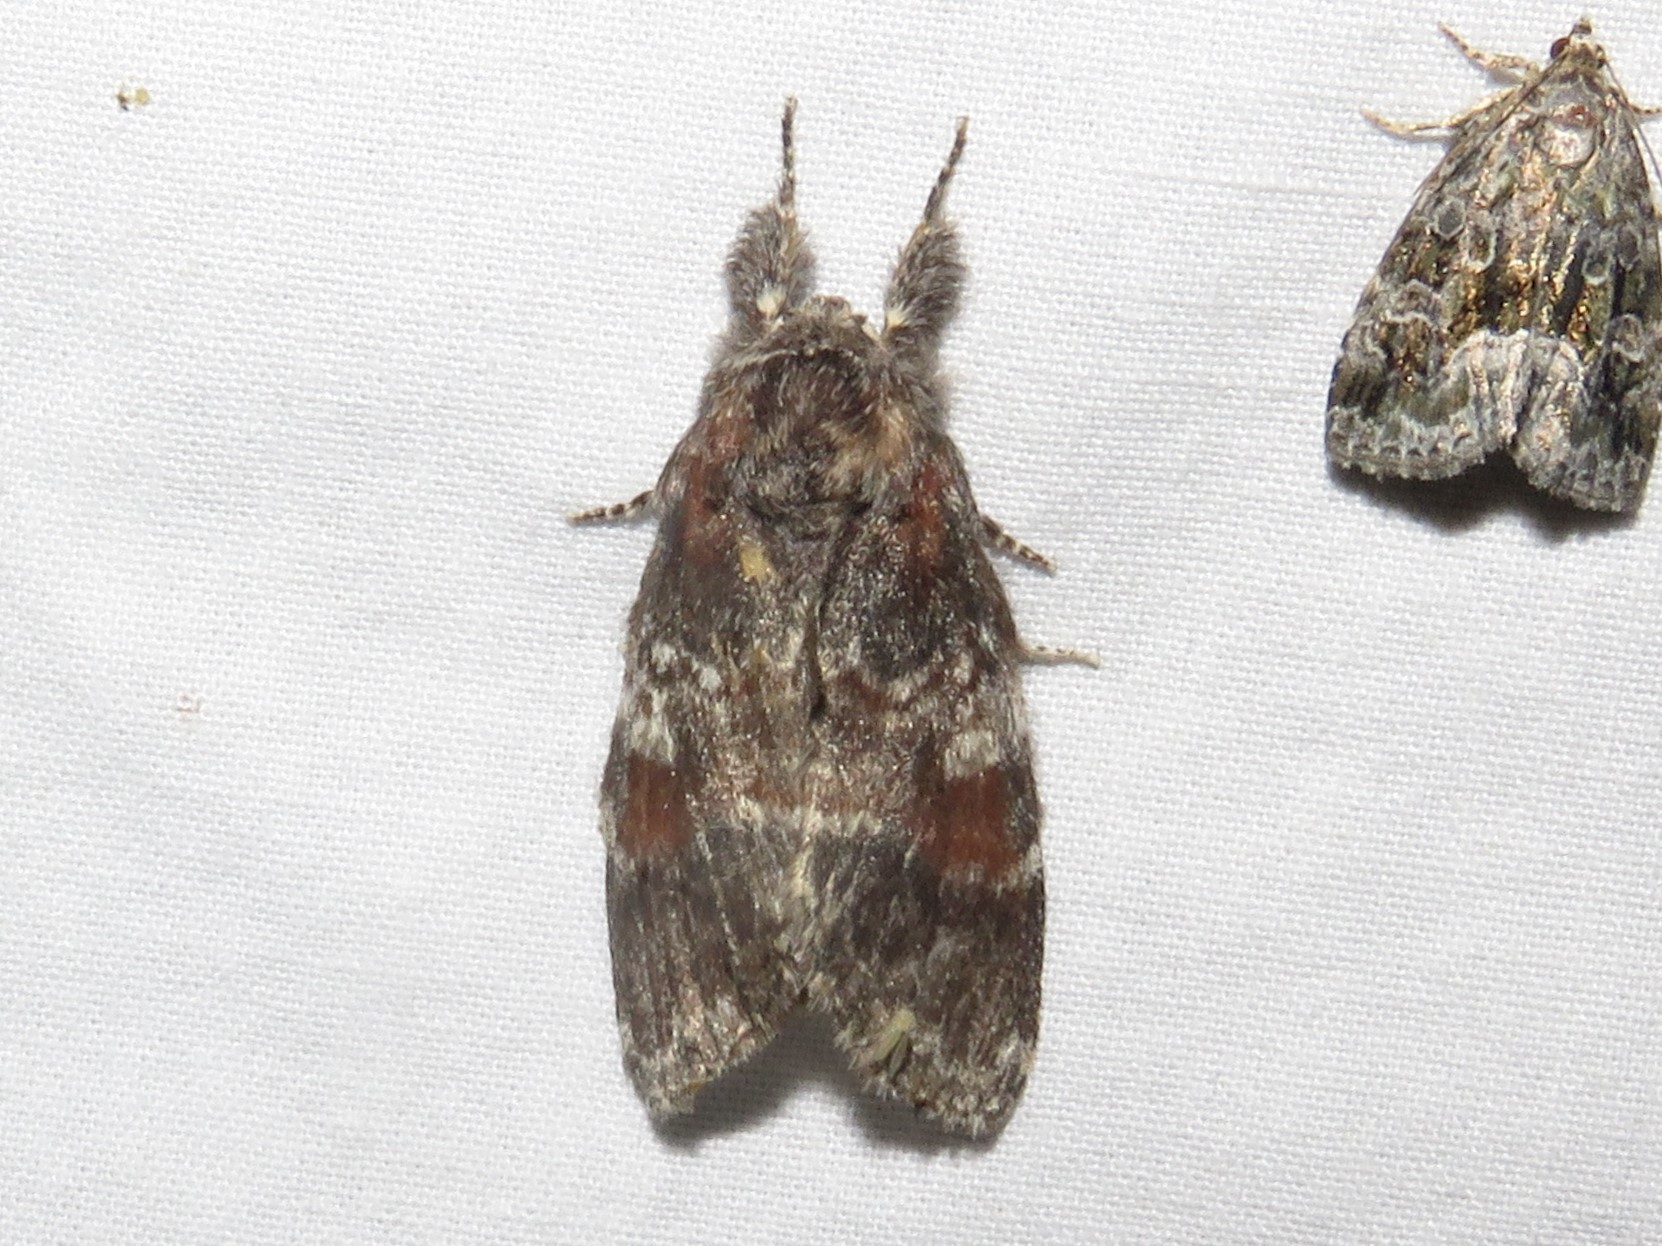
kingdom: Animalia
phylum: Arthropoda
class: Insecta
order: Lepidoptera
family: Notodontidae
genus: Peridea
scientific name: Peridea ferruginea
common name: Chocolate prominent
